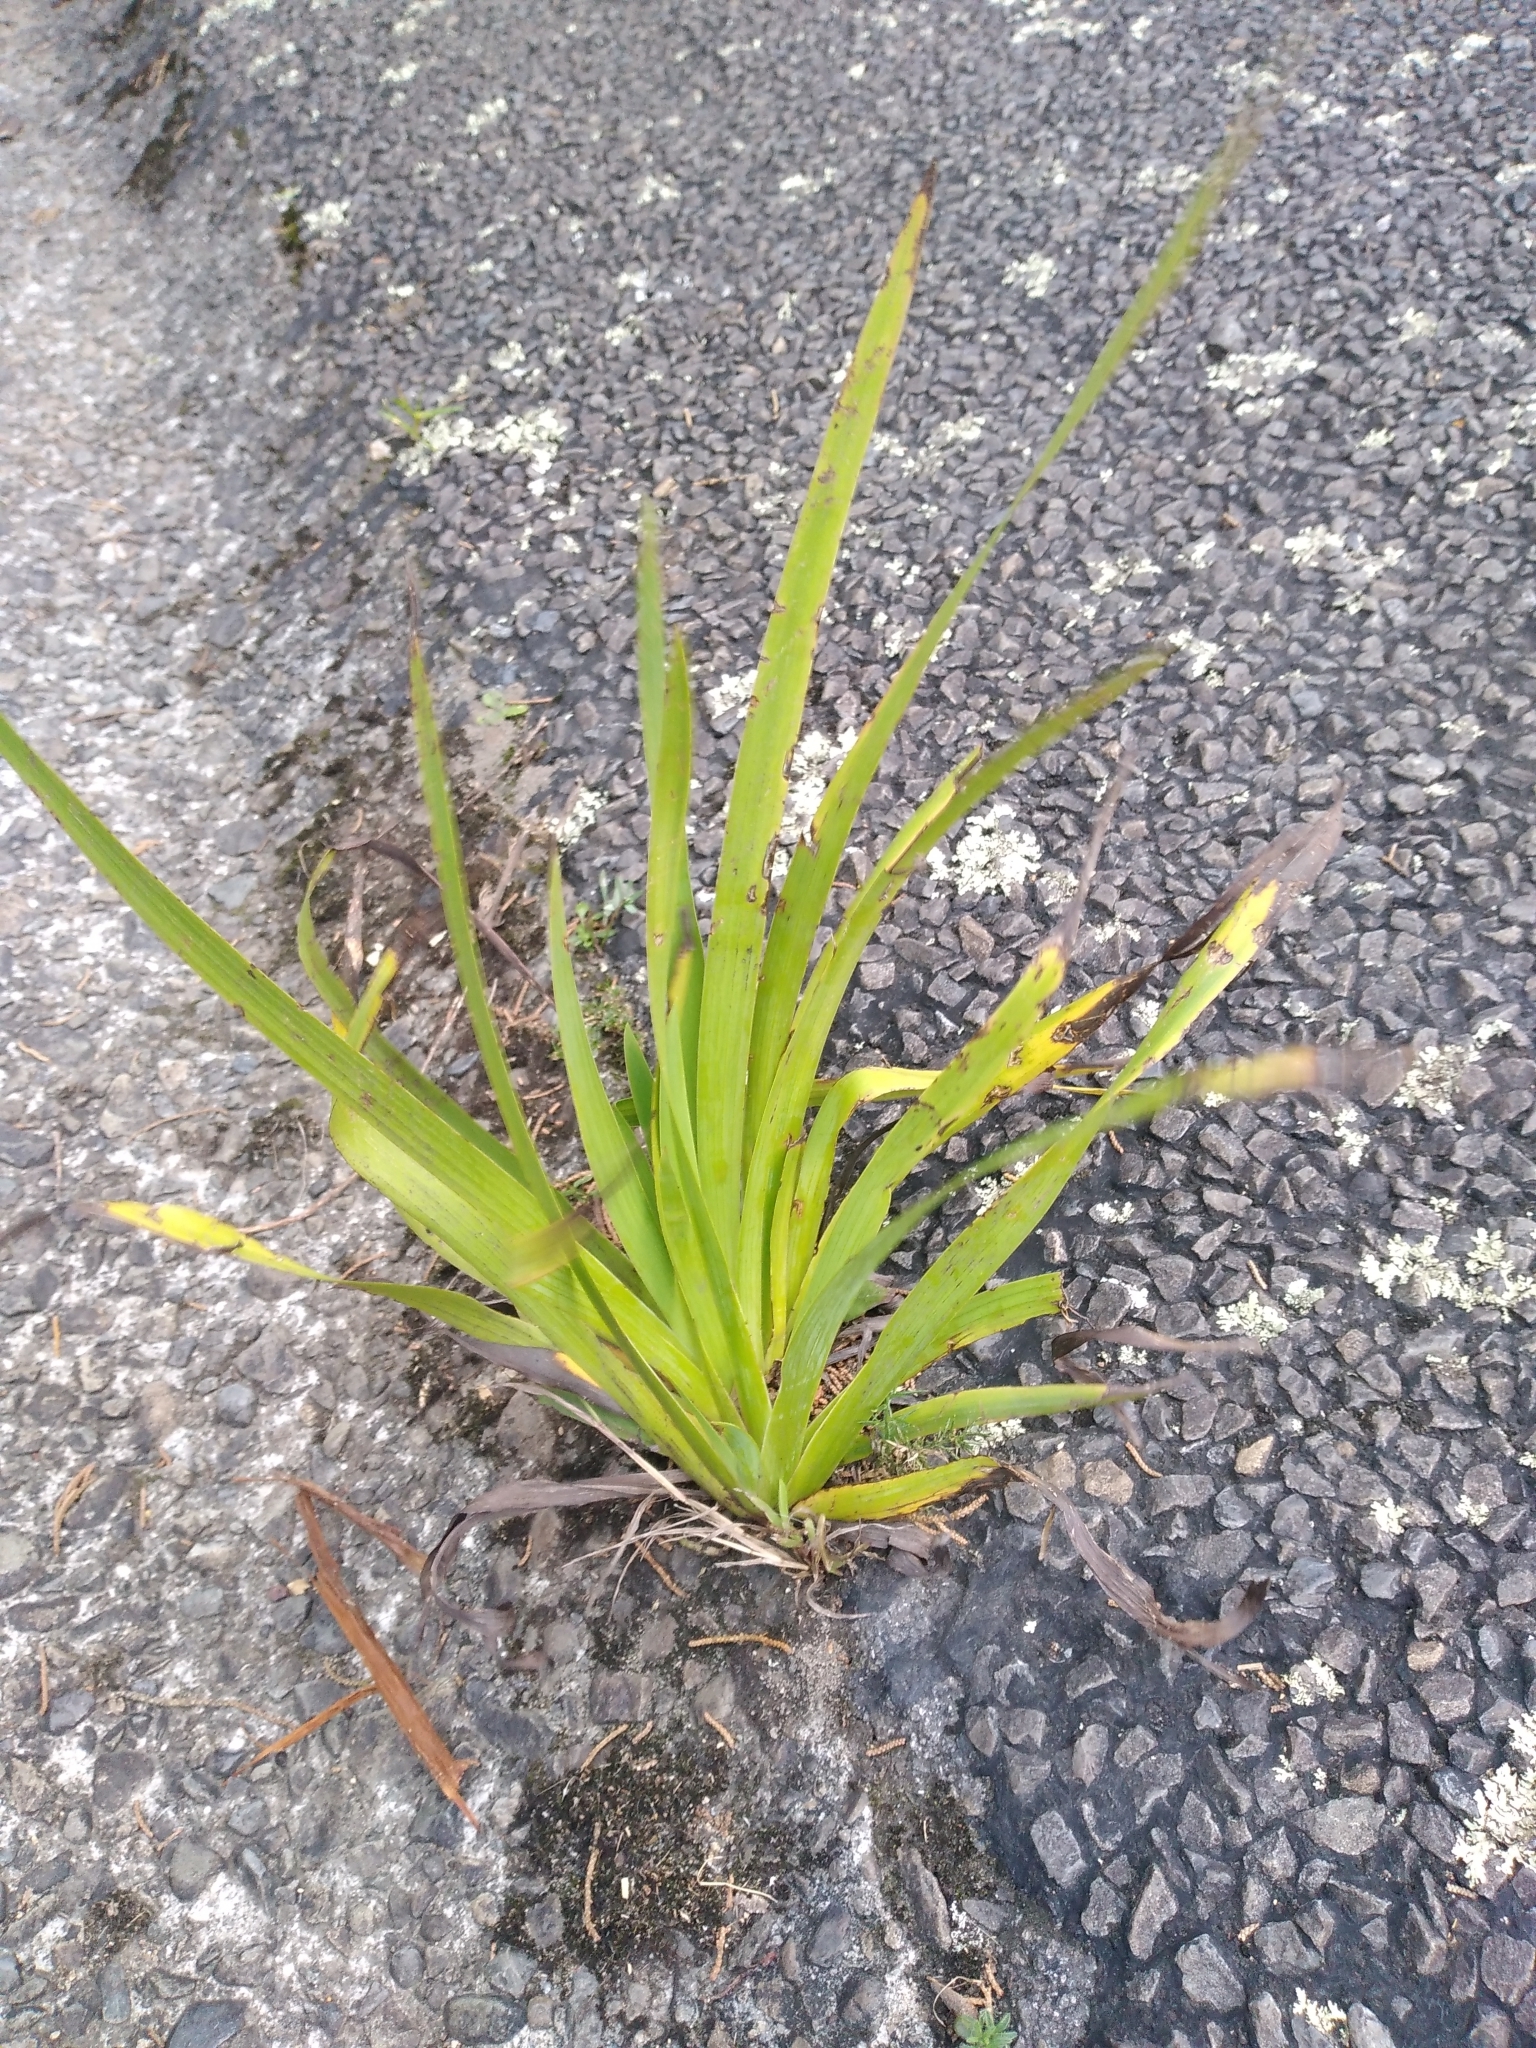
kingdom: Plantae
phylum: Tracheophyta
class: Liliopsida
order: Asparagales
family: Iridaceae
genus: Aristea
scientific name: Aristea ecklonii
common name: Blue corn-lily
